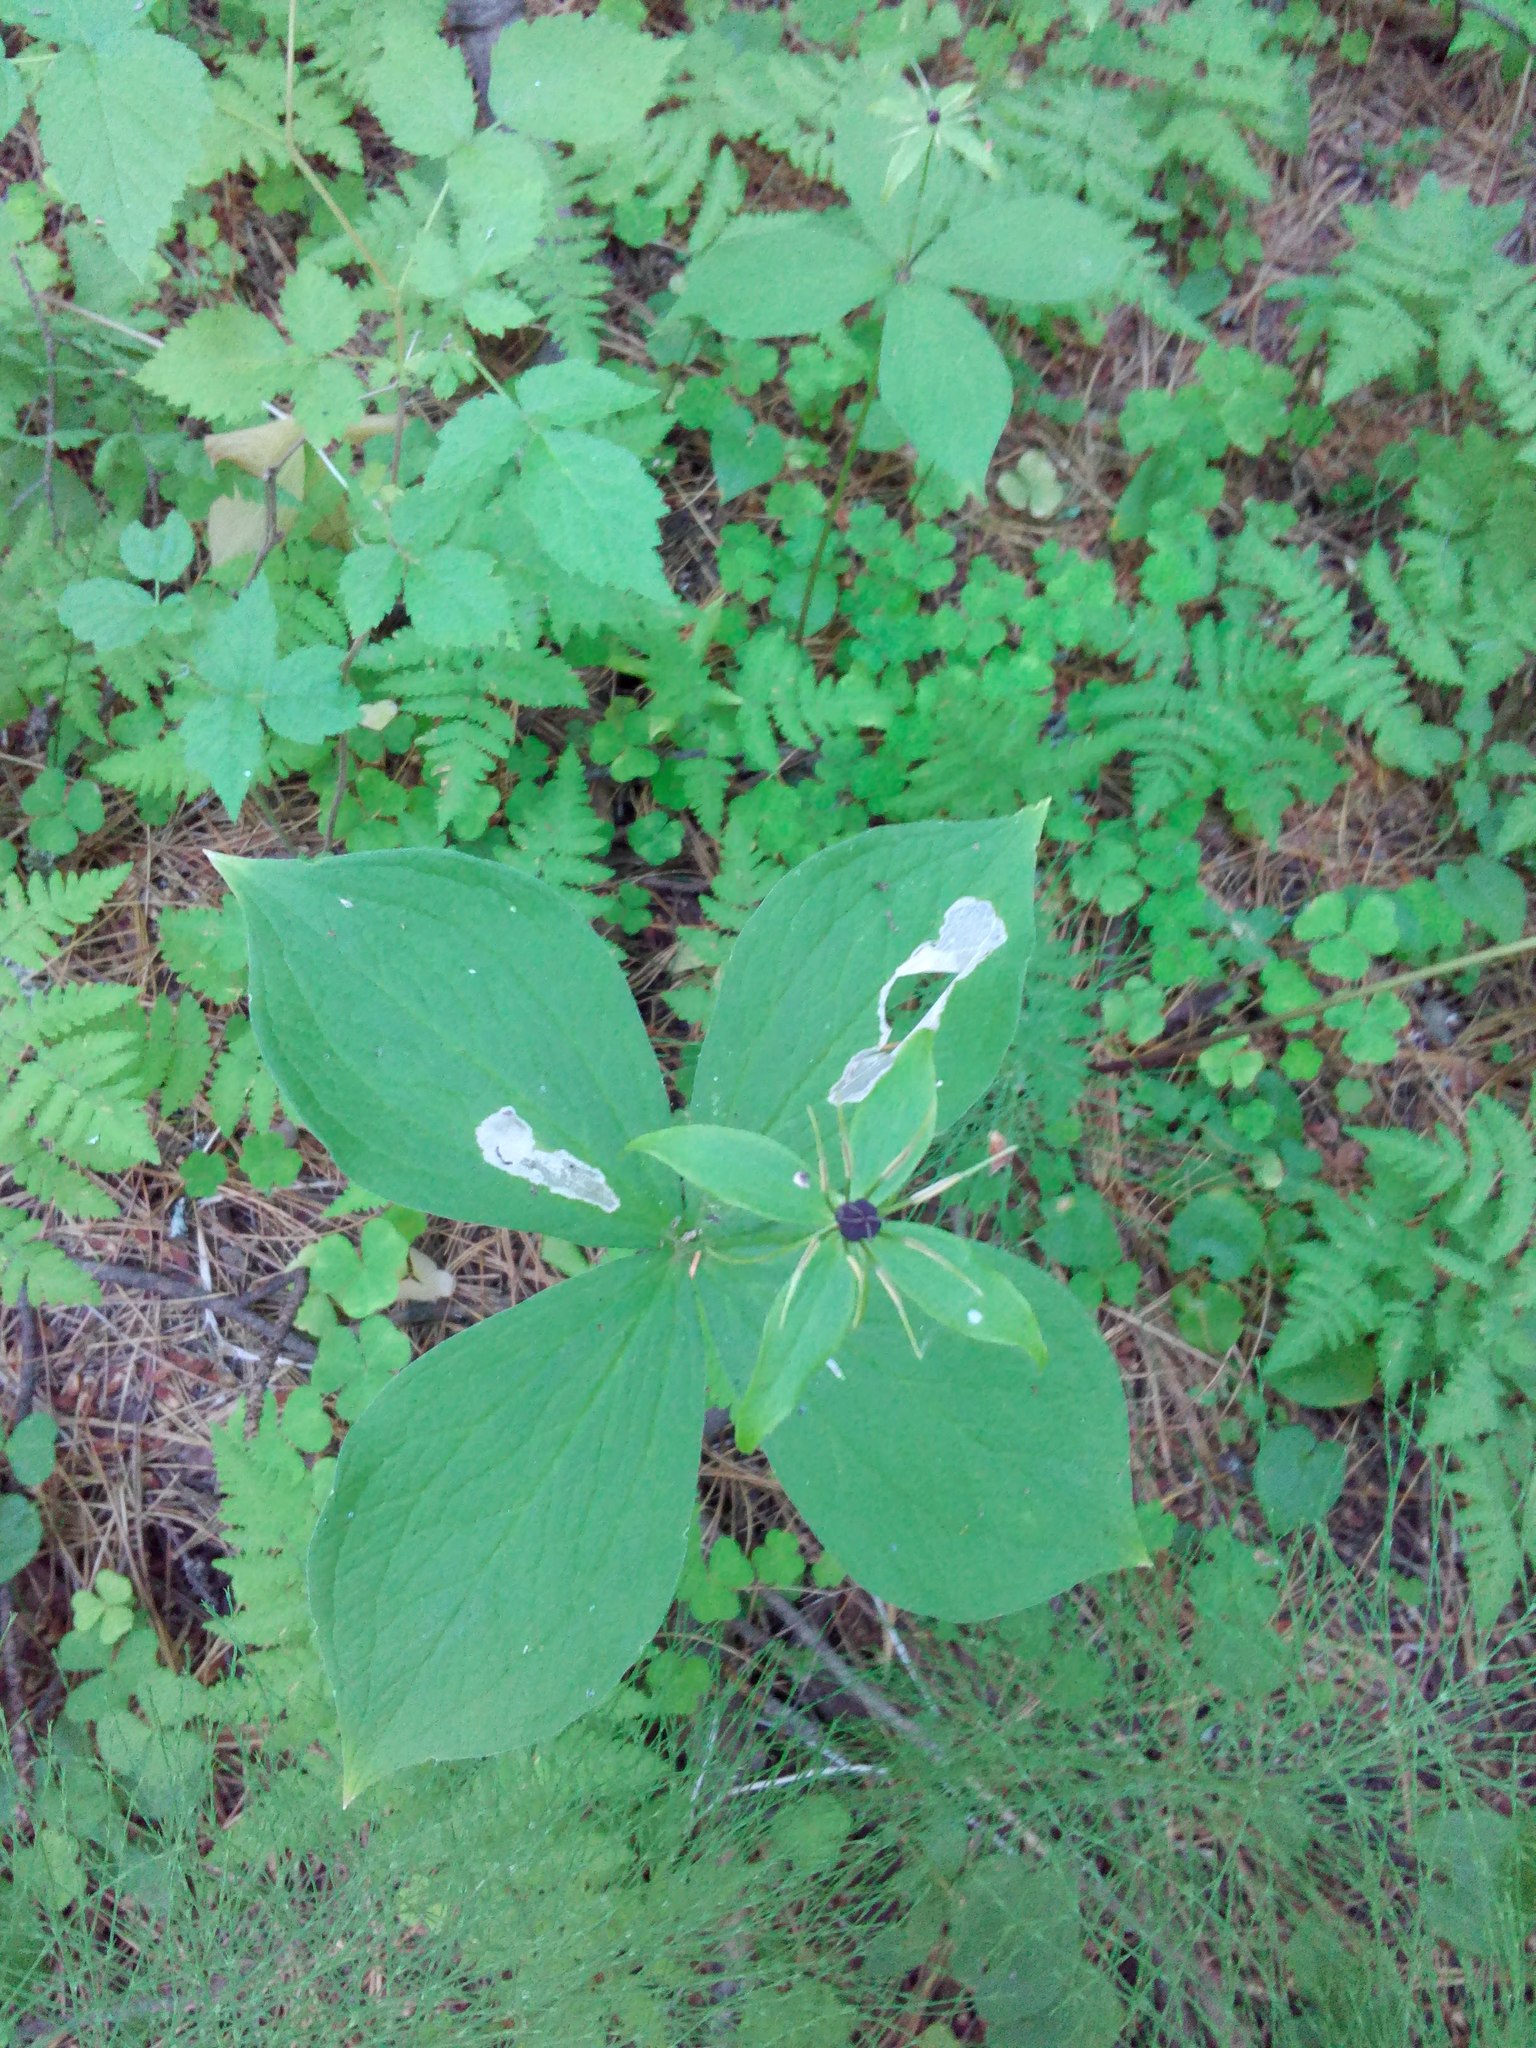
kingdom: Animalia
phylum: Arthropoda
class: Insecta
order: Diptera
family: Scathophagidae
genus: Leptopa
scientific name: Leptopa
